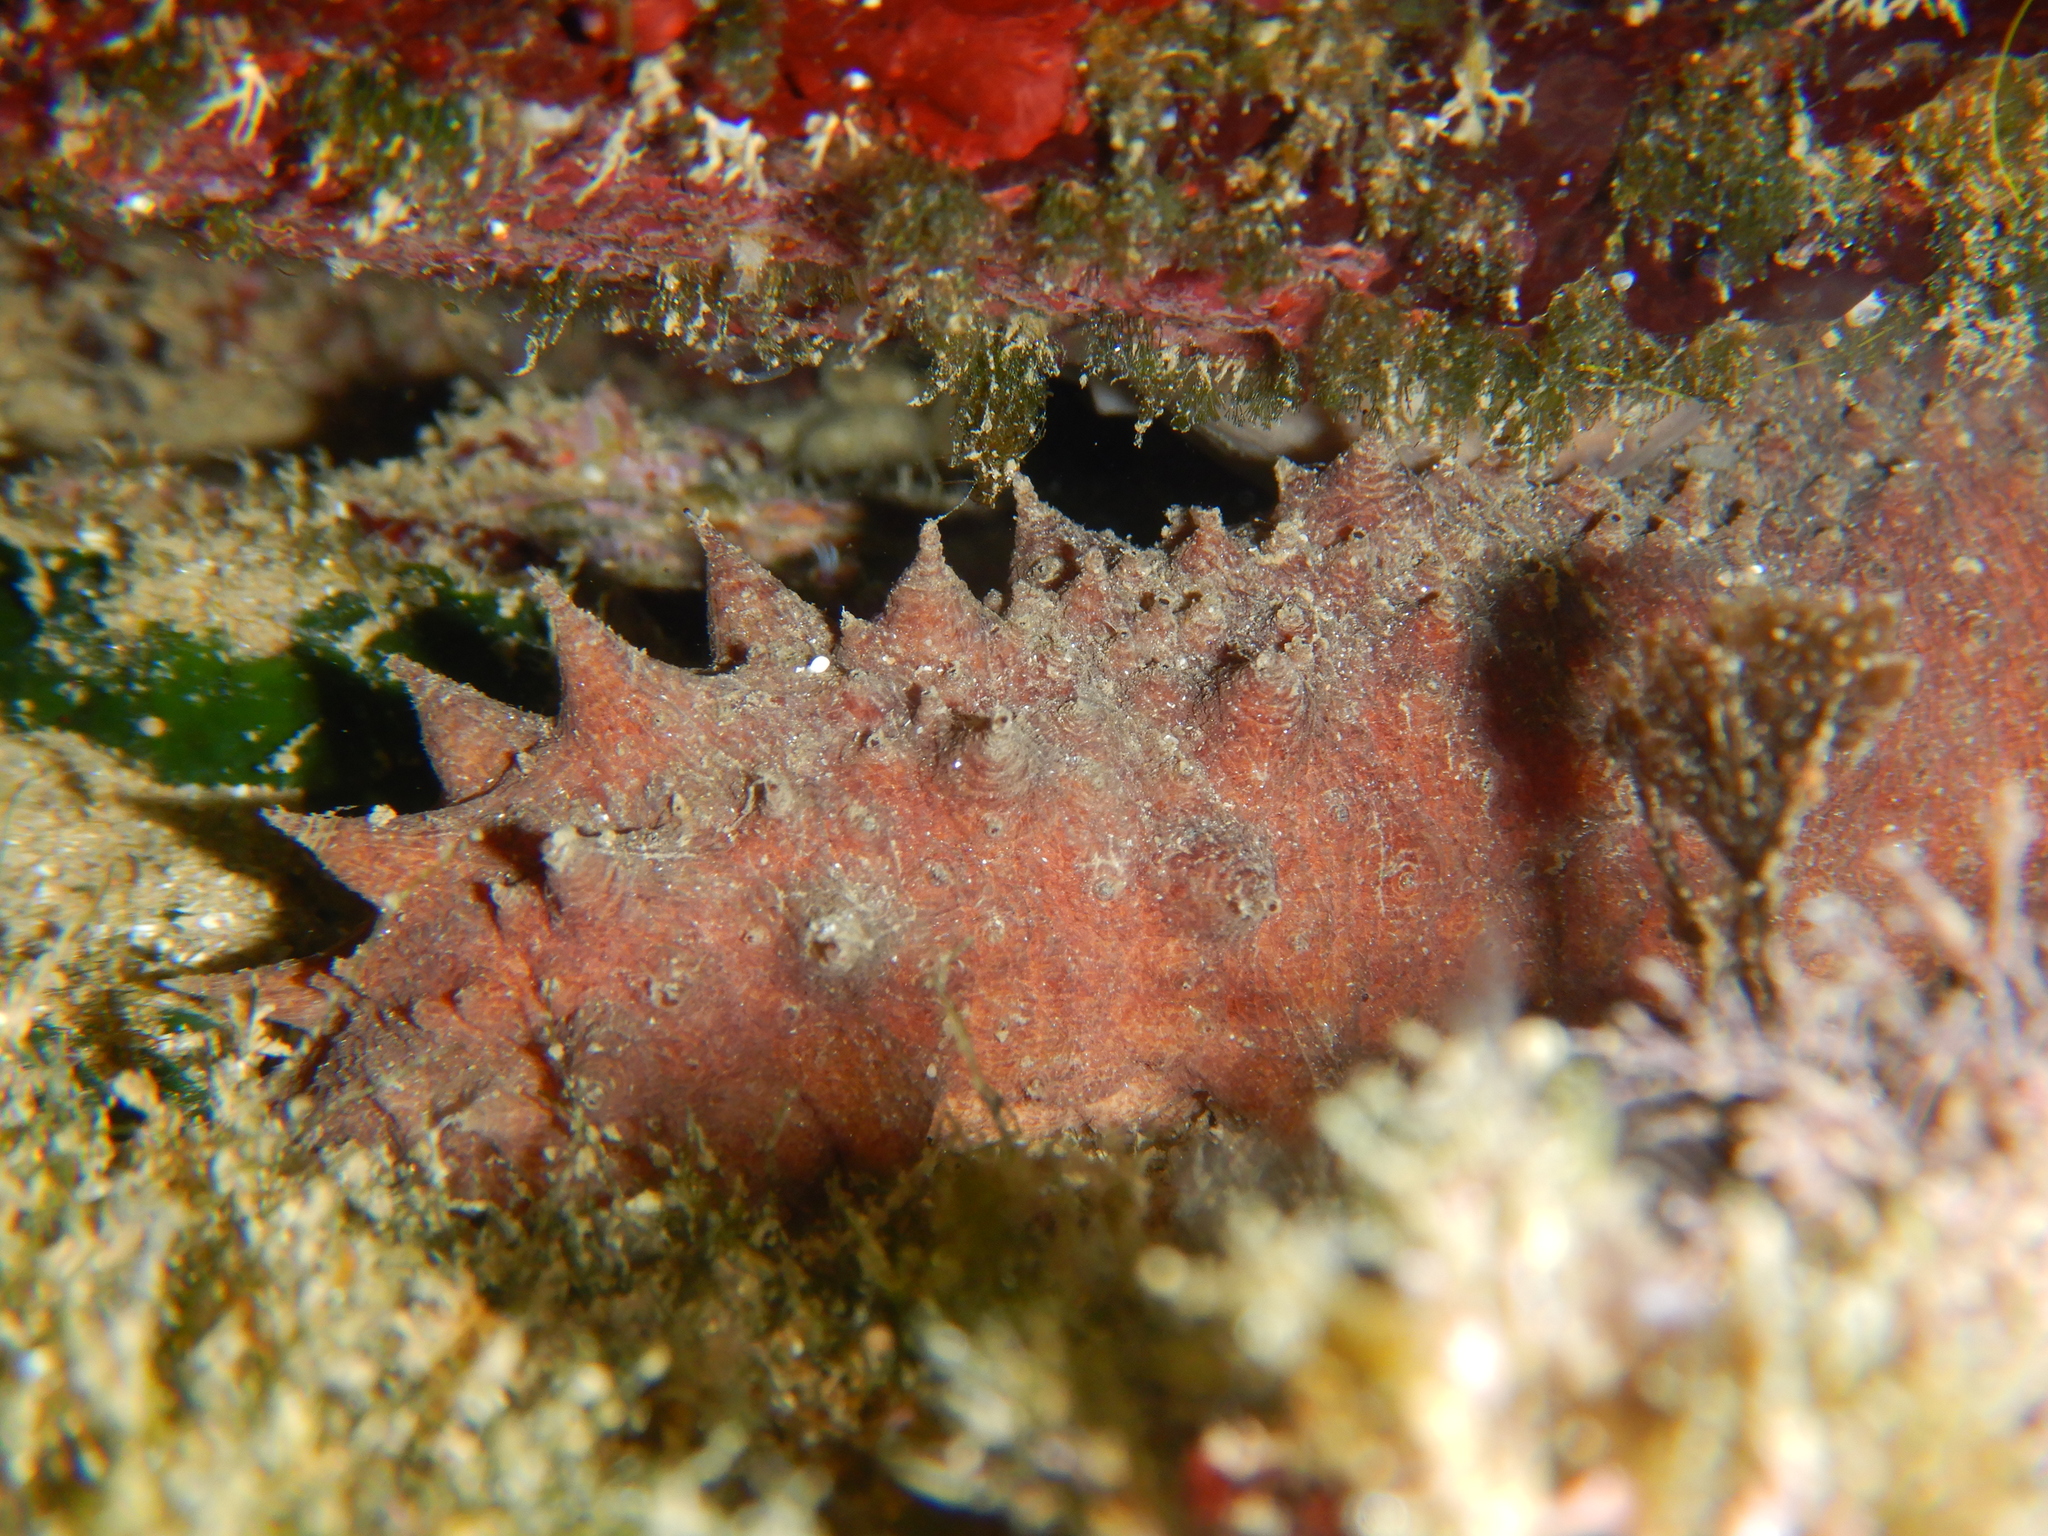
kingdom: Animalia
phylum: Echinodermata
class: Holothuroidea
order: Holothuriida
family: Holothuriidae
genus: Holothuria
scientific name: Holothuria tubulosa
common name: Cotton-spinner
